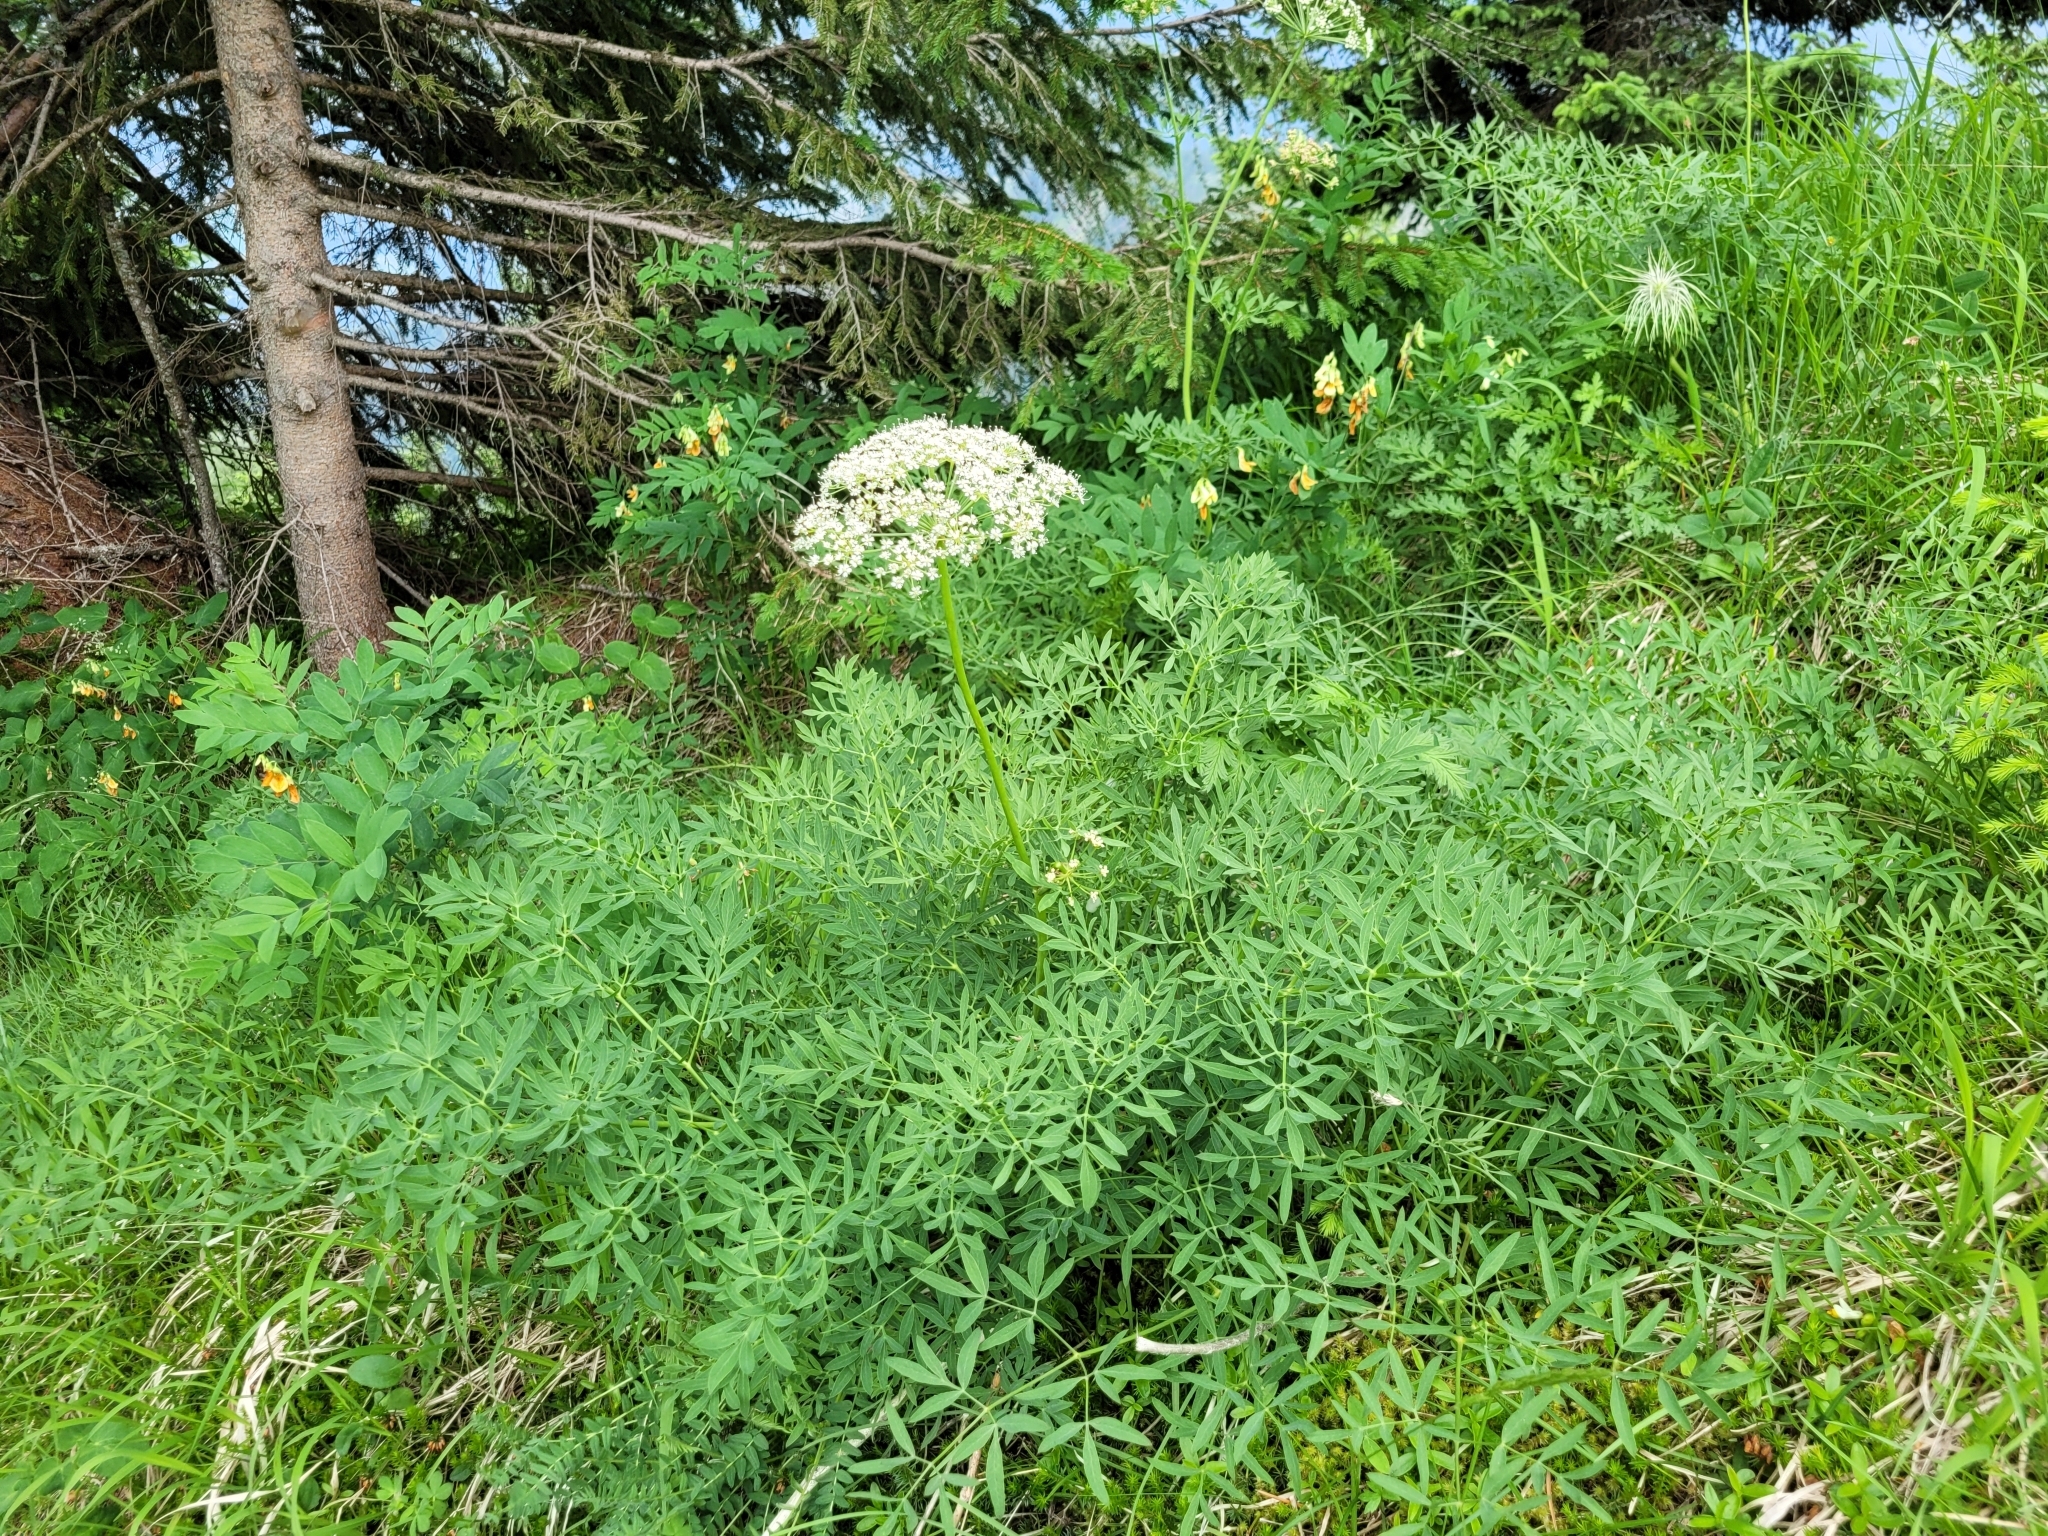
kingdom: Plantae
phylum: Tracheophyta
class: Magnoliopsida
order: Apiales
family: Apiaceae
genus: Siler
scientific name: Siler montanum
